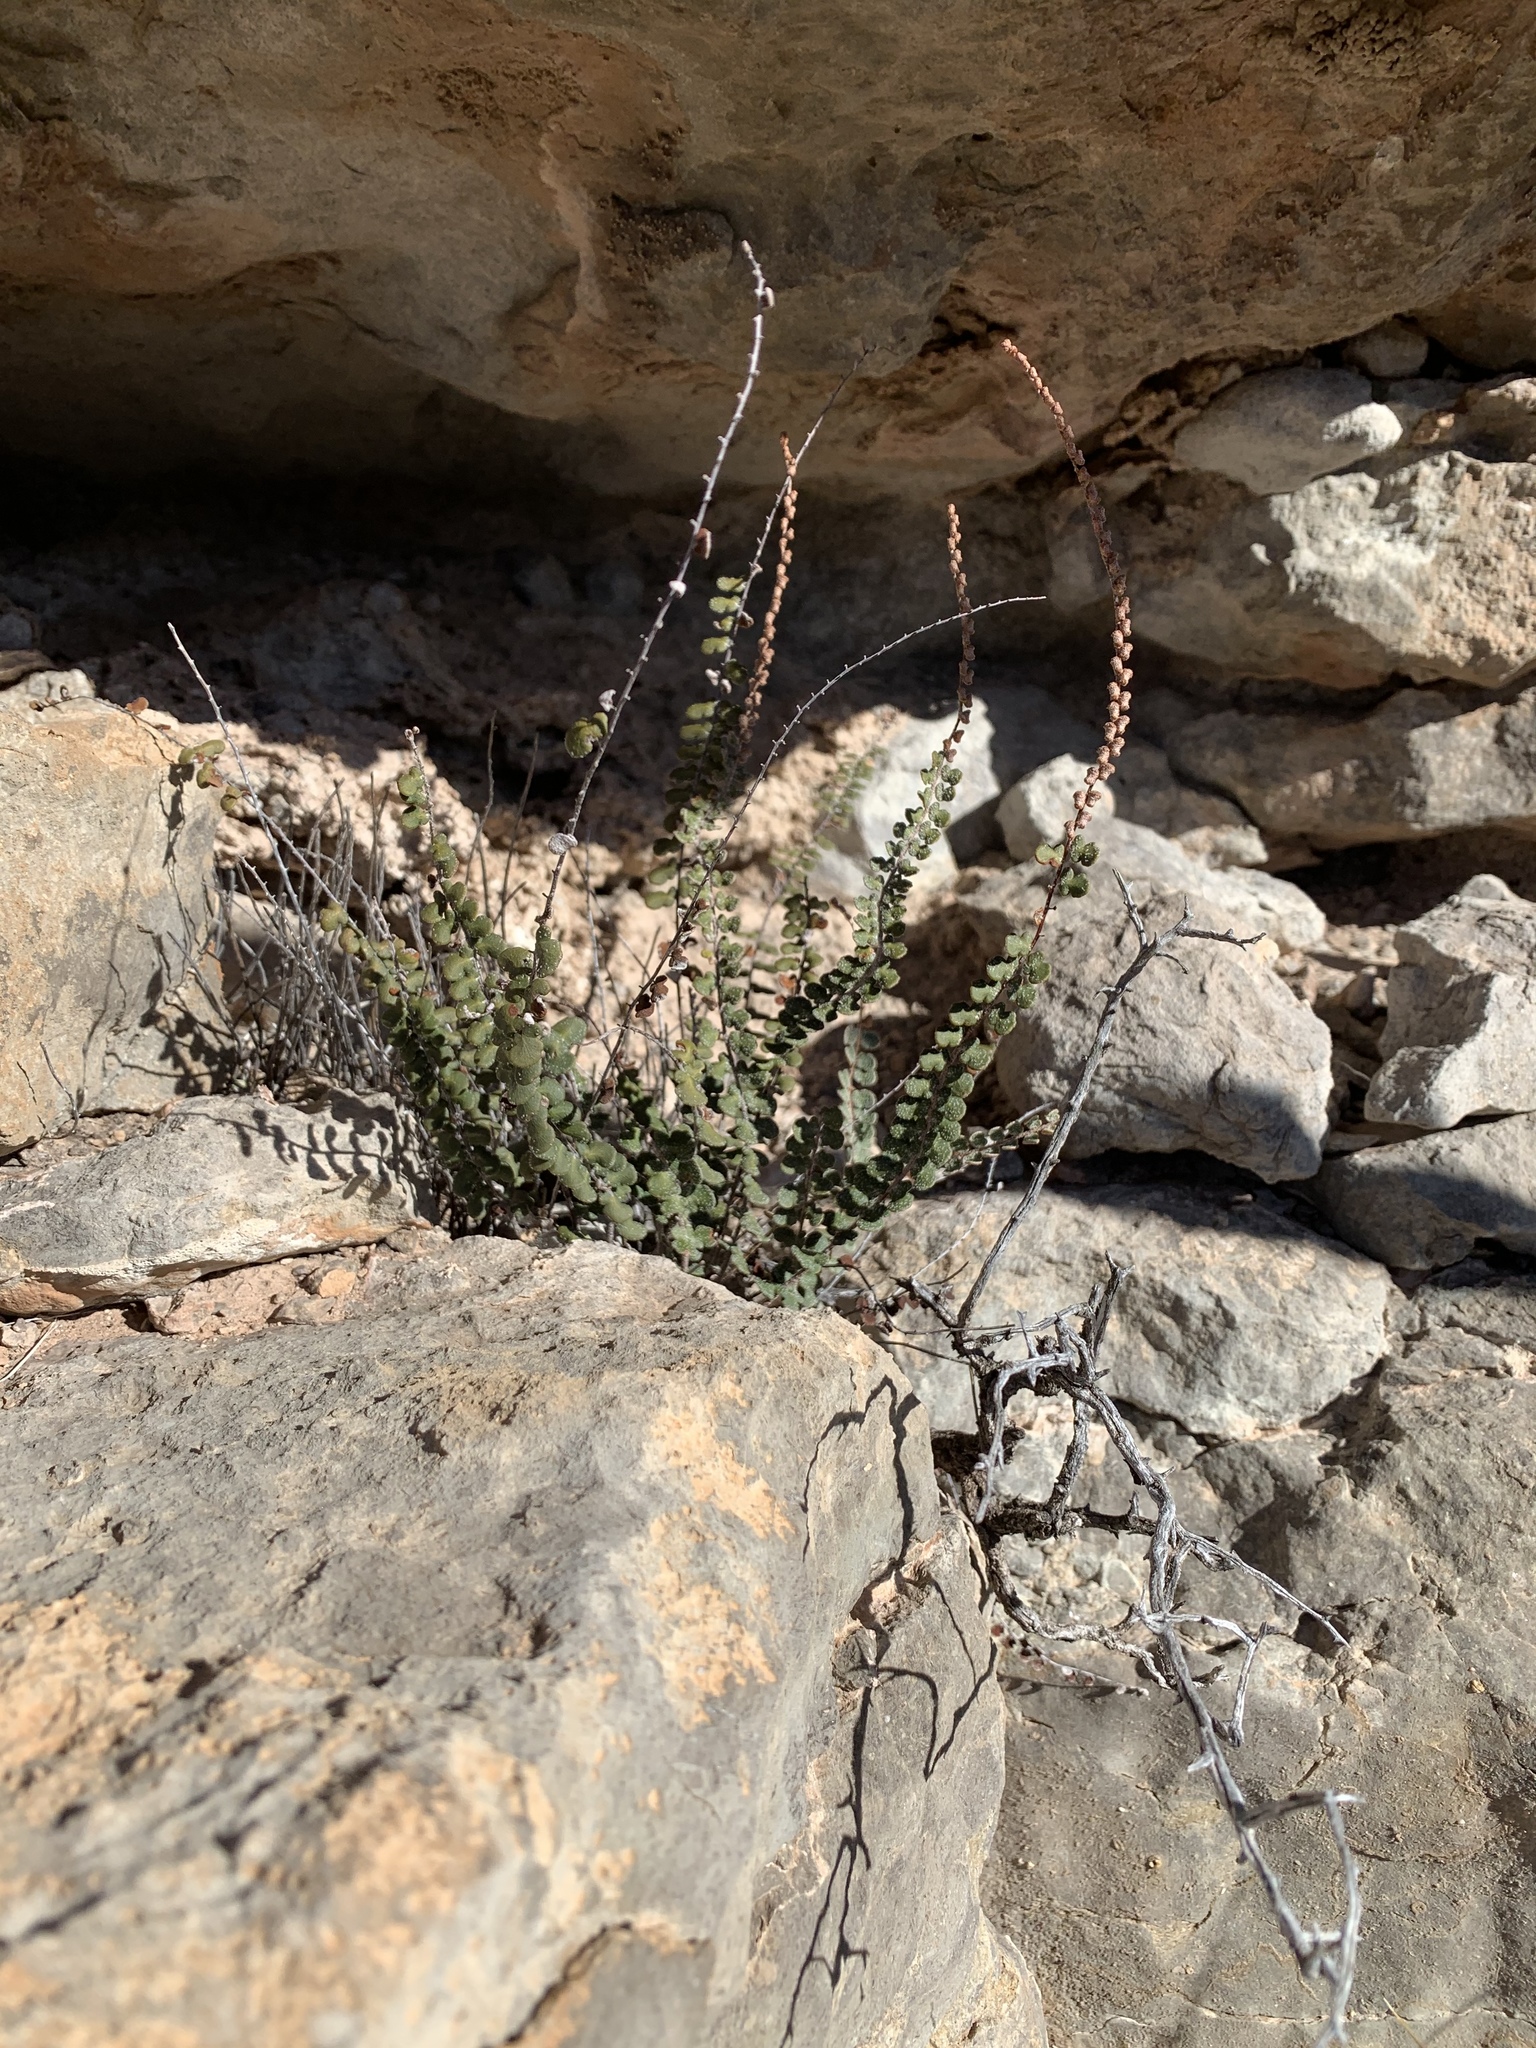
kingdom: Plantae
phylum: Tracheophyta
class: Polypodiopsida
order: Polypodiales
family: Pteridaceae
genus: Astrolepis
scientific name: Astrolepis cochisensis
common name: Scaly cloak fern
